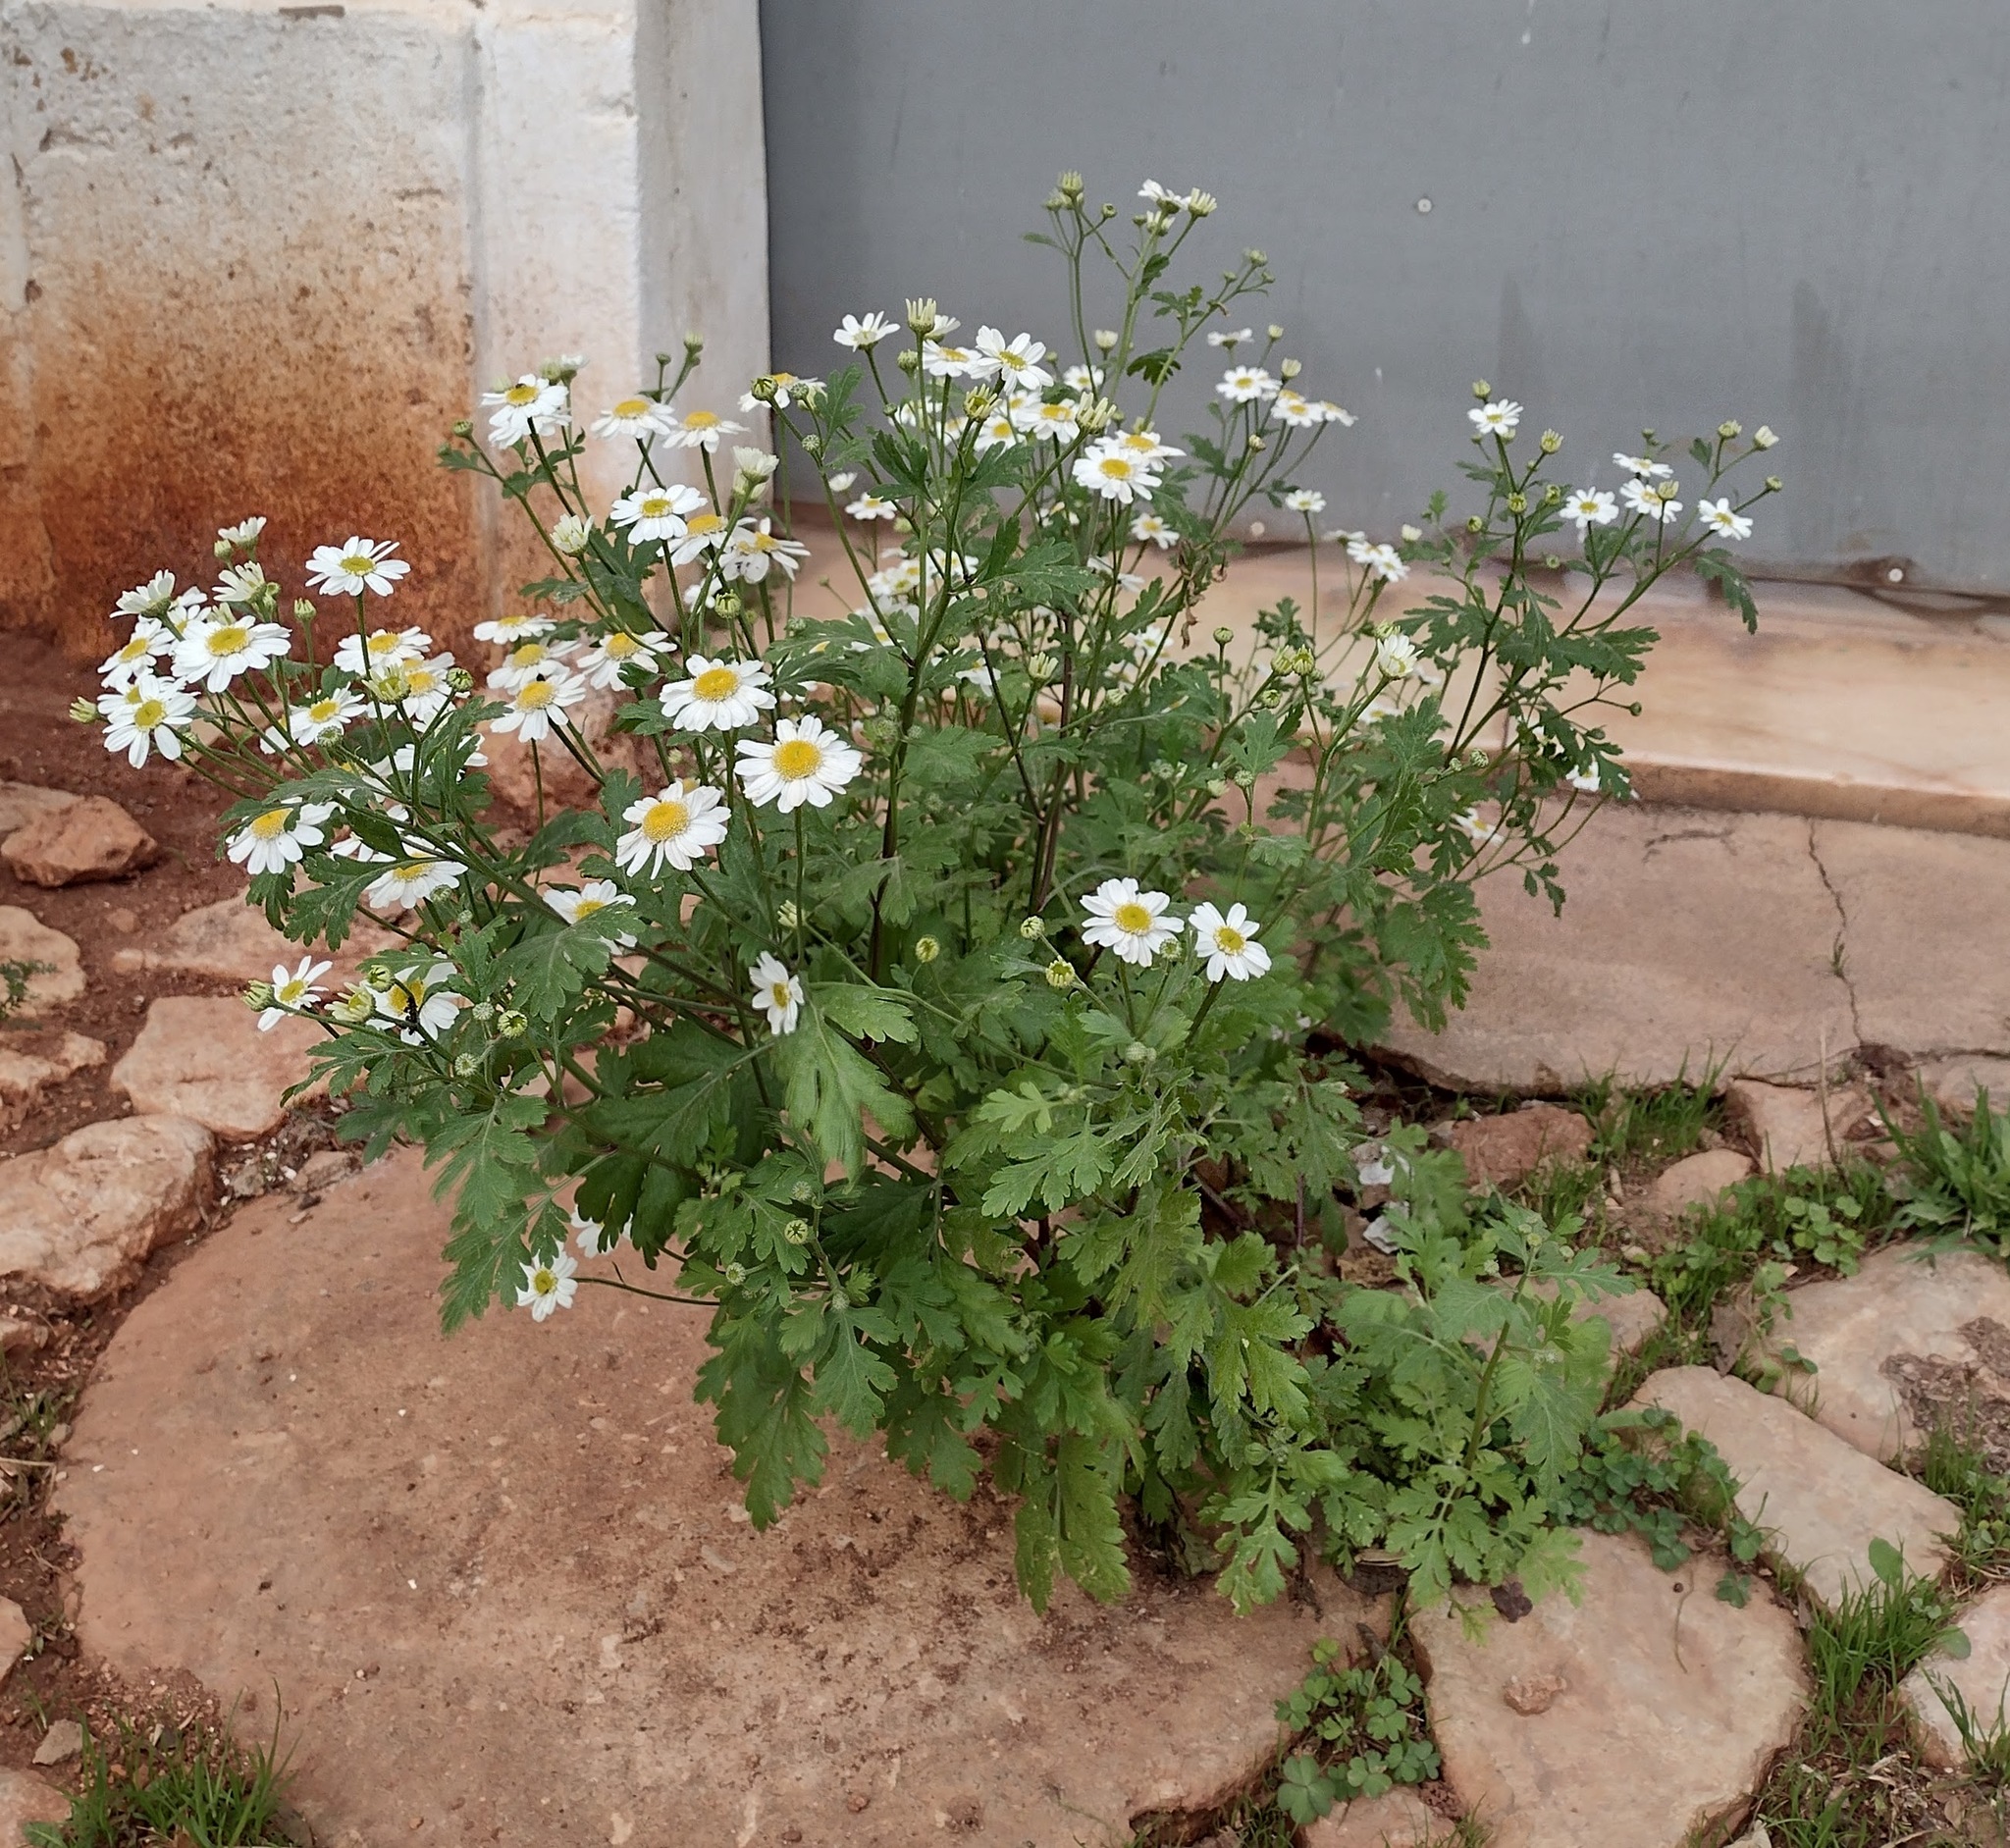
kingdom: Plantae
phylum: Tracheophyta
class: Magnoliopsida
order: Asterales
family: Asteraceae
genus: Tanacetum
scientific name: Tanacetum parthenium
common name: Feverfew
